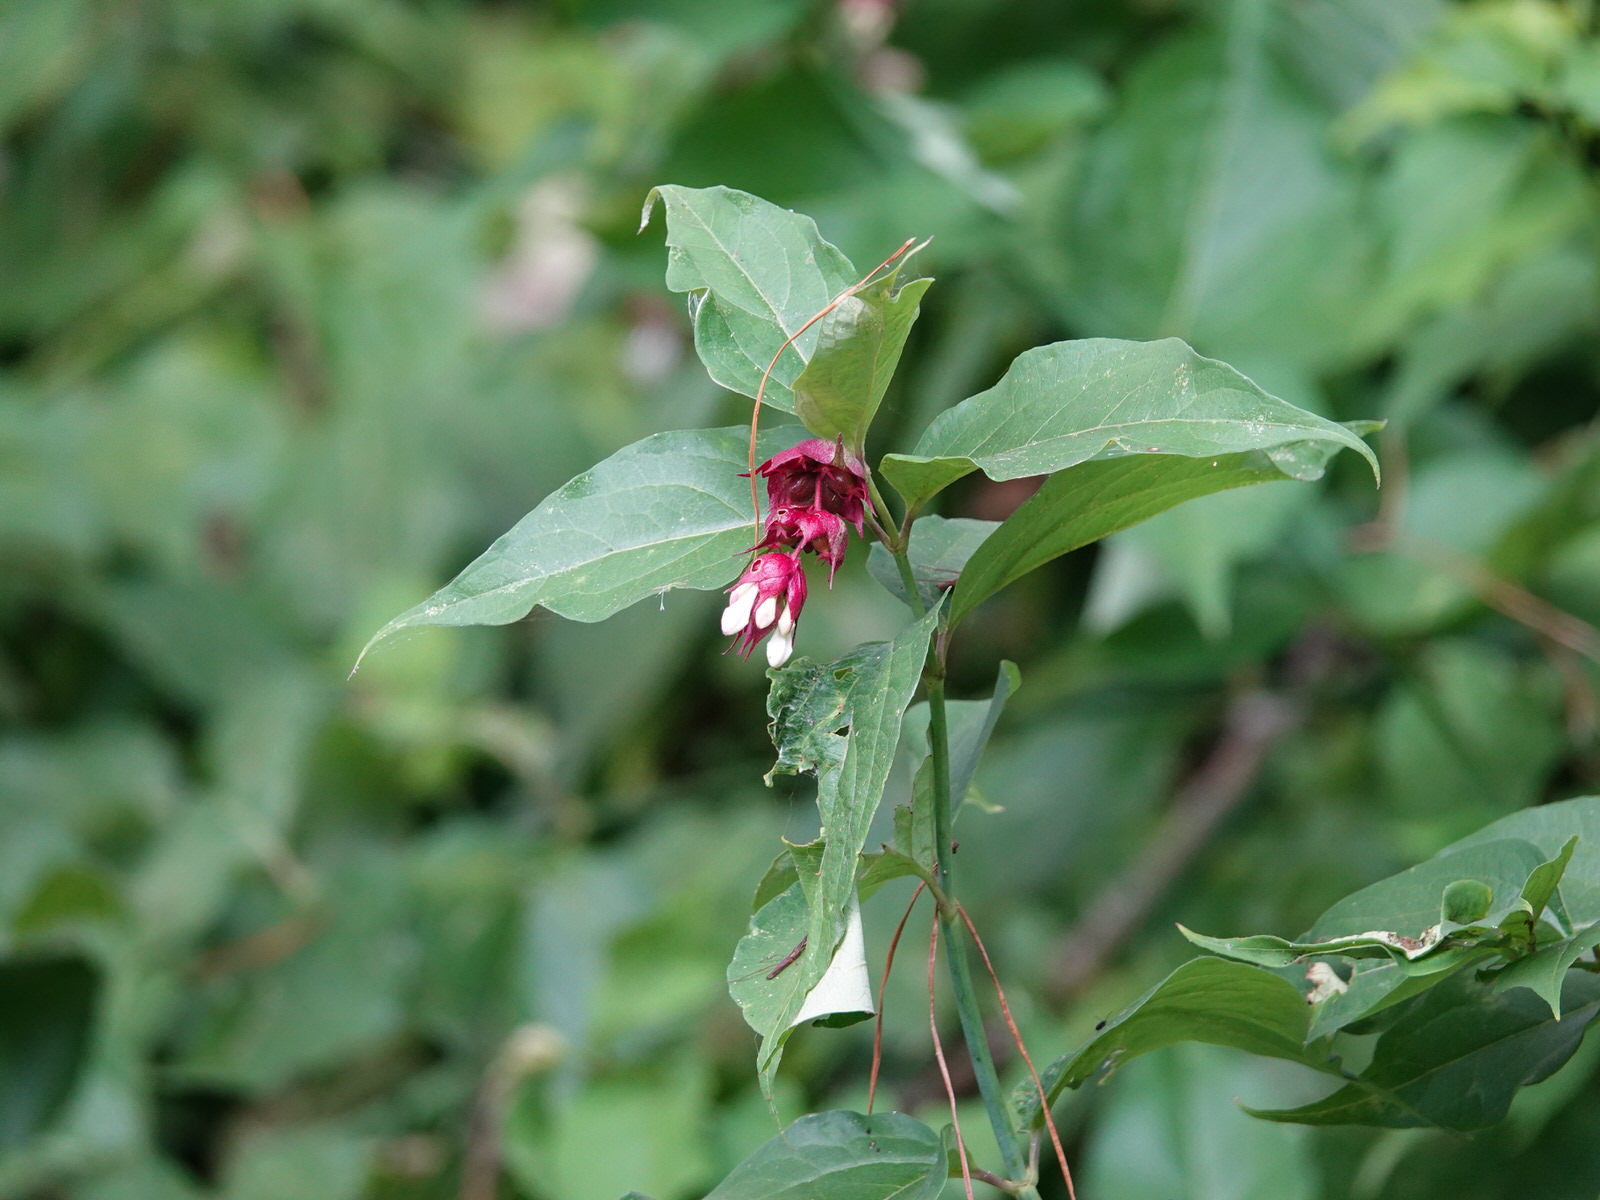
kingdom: Plantae
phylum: Tracheophyta
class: Magnoliopsida
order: Dipsacales
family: Caprifoliaceae
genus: Leycesteria
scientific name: Leycesteria formosa
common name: Himalayan honeysuckle
